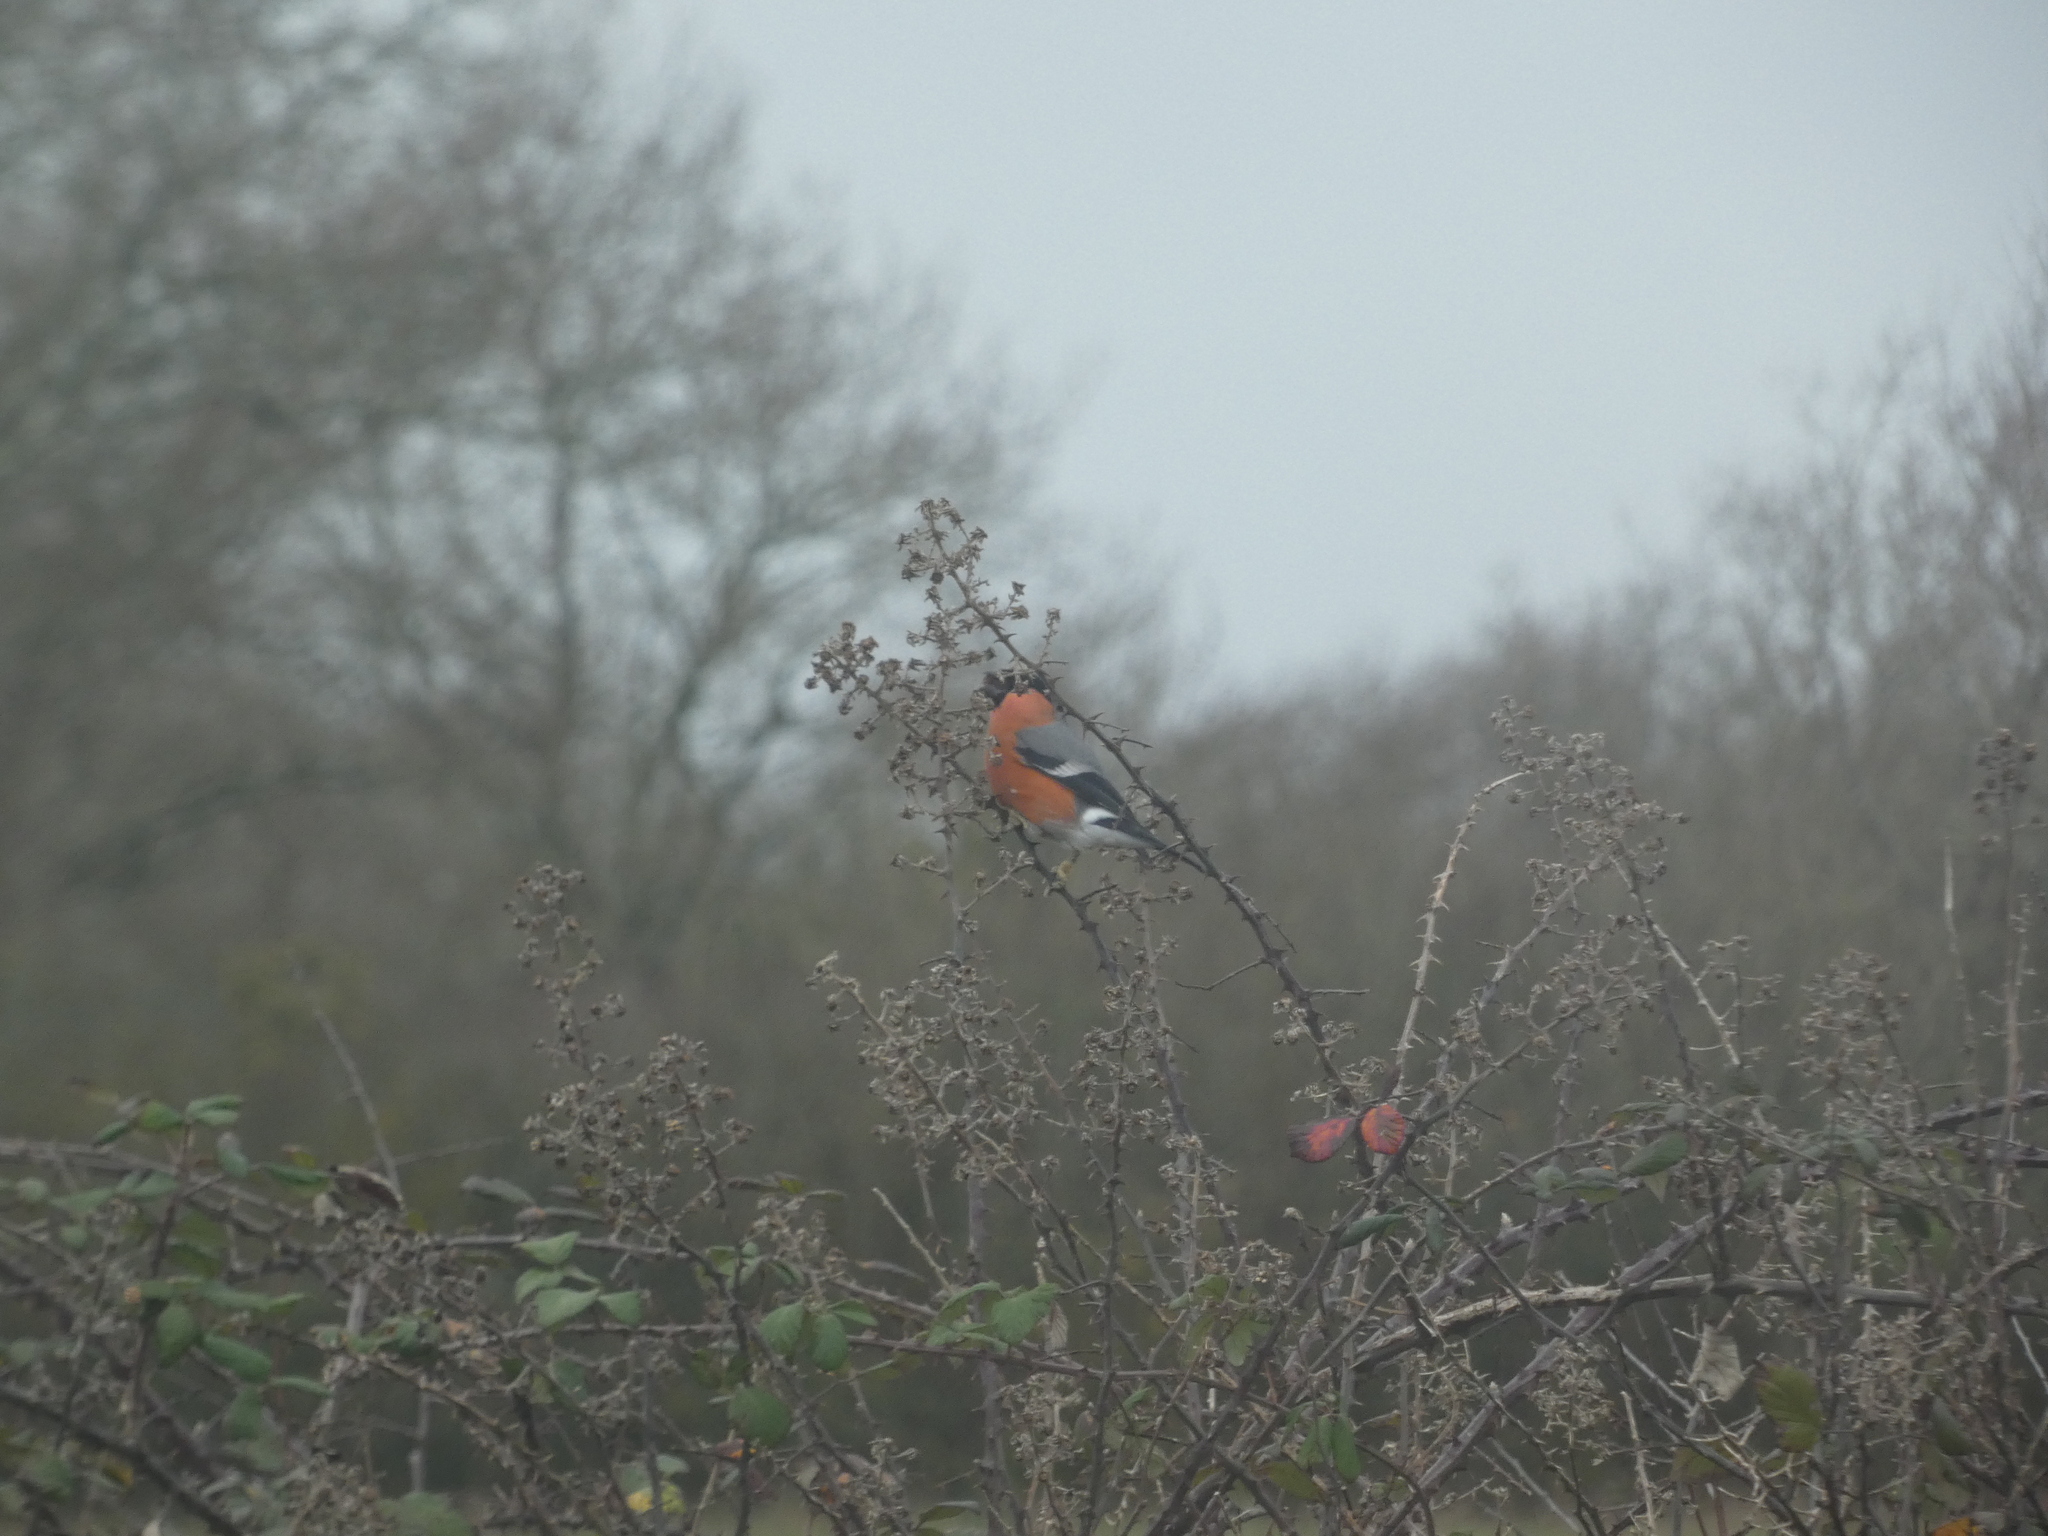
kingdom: Animalia
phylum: Chordata
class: Aves
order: Passeriformes
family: Fringillidae
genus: Pyrrhula
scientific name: Pyrrhula pyrrhula
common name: Eurasian bullfinch
